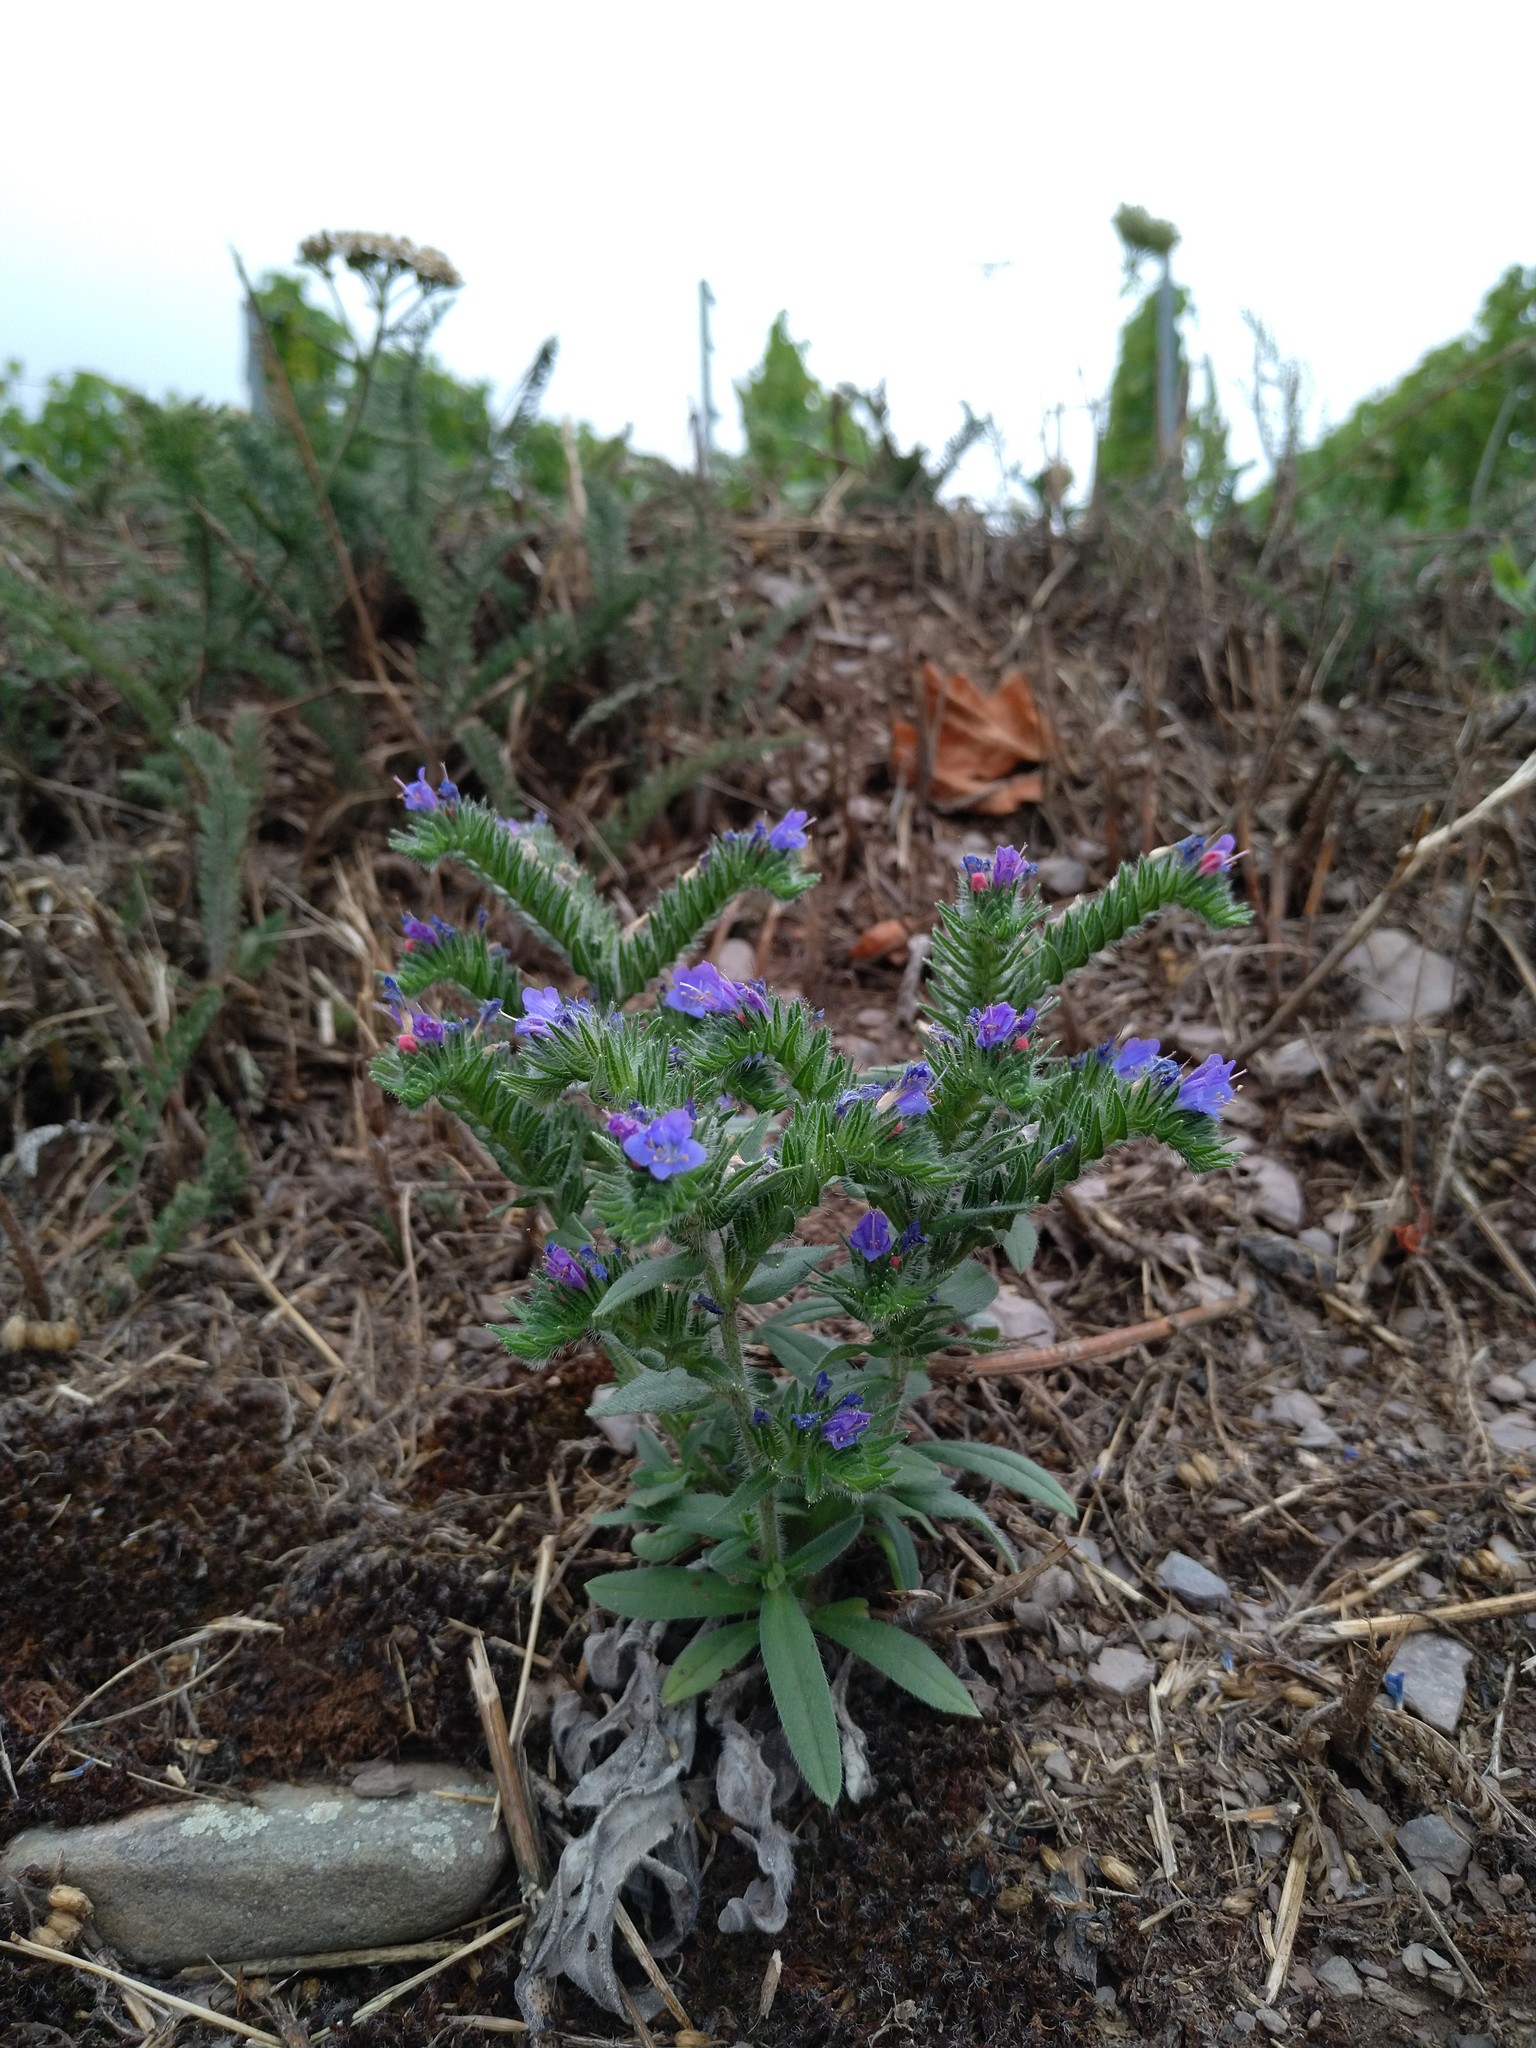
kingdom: Plantae
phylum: Tracheophyta
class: Magnoliopsida
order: Boraginales
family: Boraginaceae
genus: Echium
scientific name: Echium vulgare
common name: Common viper's bugloss
